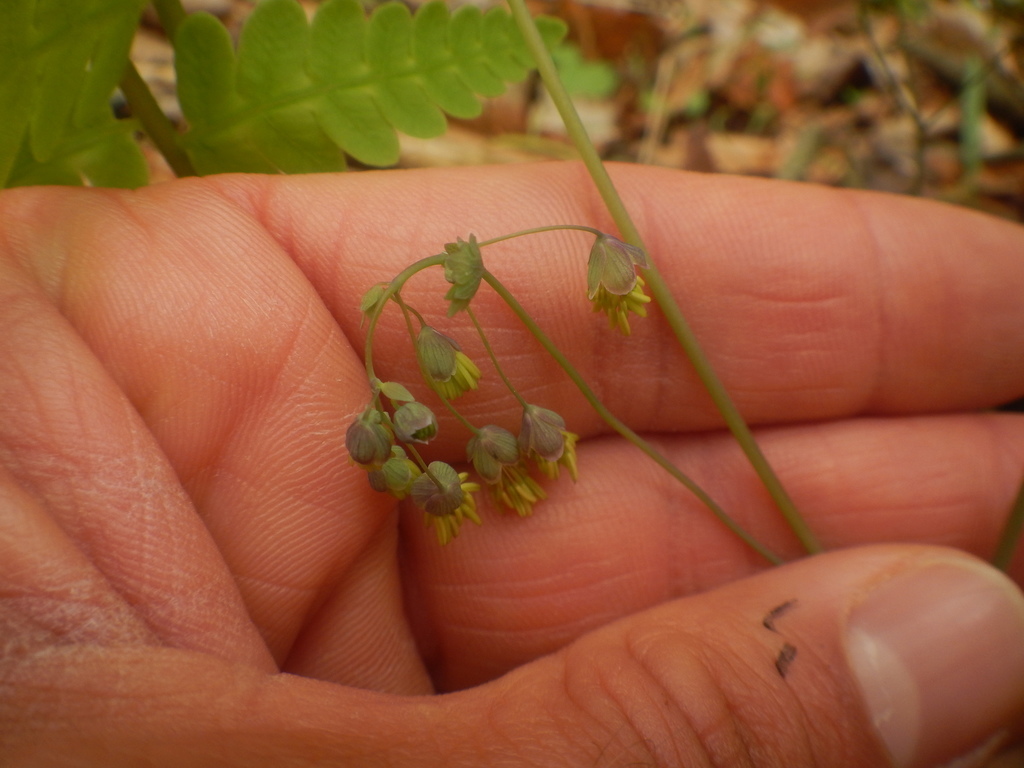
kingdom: Plantae
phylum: Tracheophyta
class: Magnoliopsida
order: Ranunculales
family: Ranunculaceae
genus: Thalictrum
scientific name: Thalictrum dioicum
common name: Early meadow-rue
